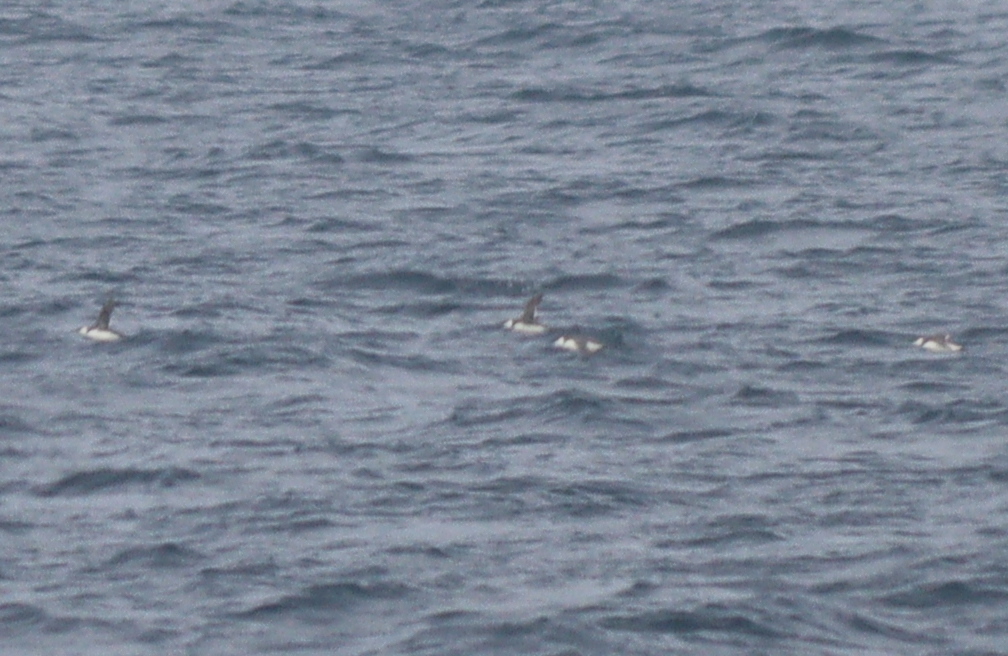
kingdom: Animalia
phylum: Chordata
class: Aves
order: Charadriiformes
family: Alcidae
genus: Uria
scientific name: Uria aalge
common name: Common murre
